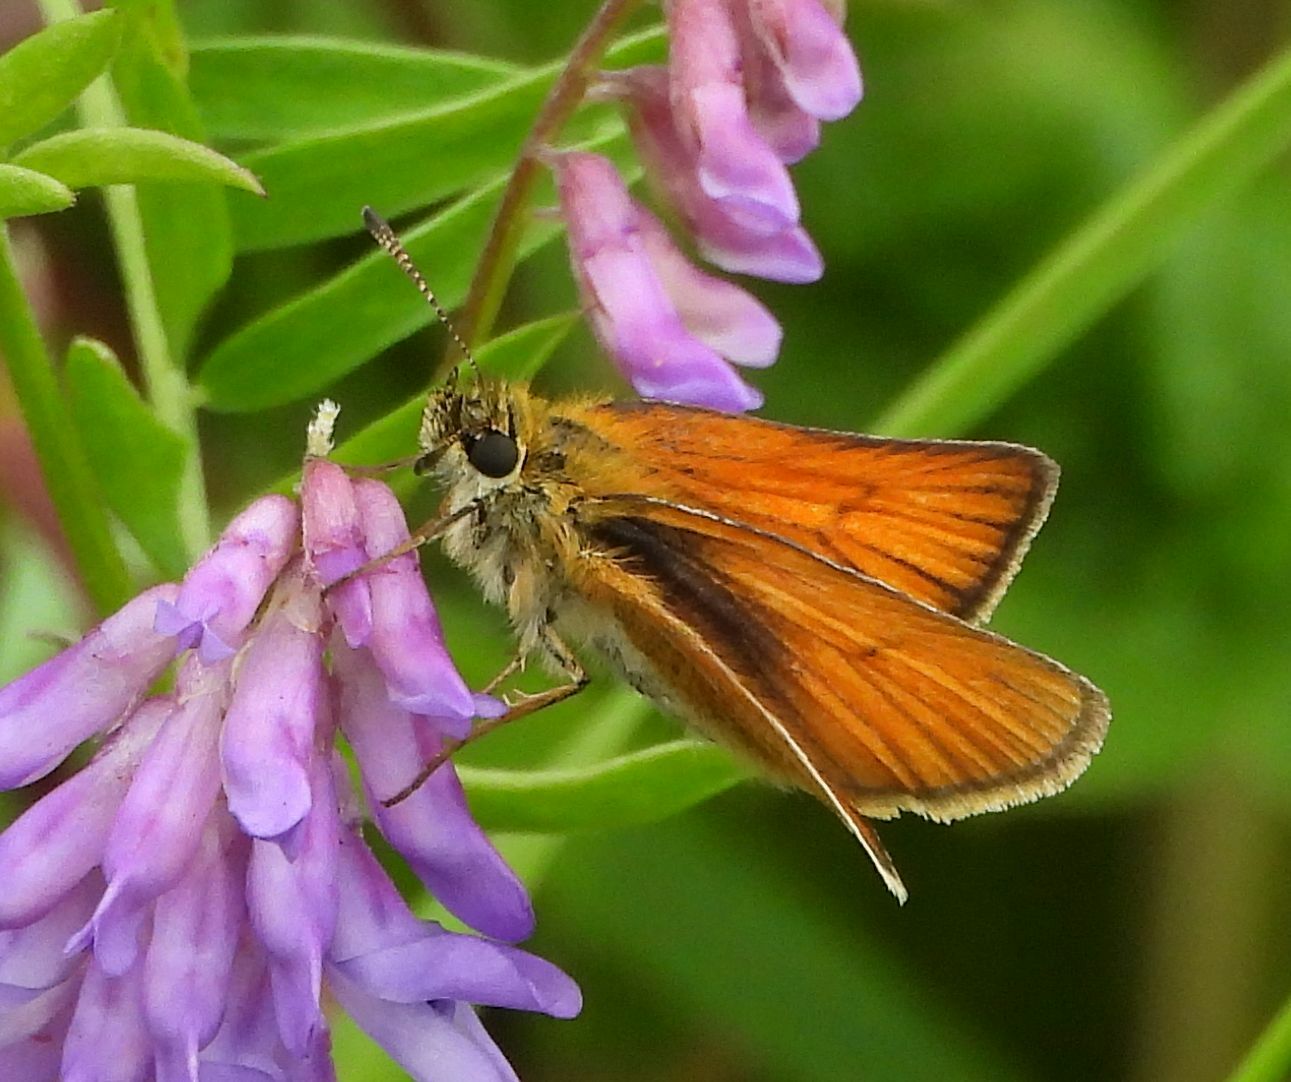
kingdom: Animalia
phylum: Arthropoda
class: Insecta
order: Lepidoptera
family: Hesperiidae
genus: Thymelicus
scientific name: Thymelicus lineola
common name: Essex skipper
